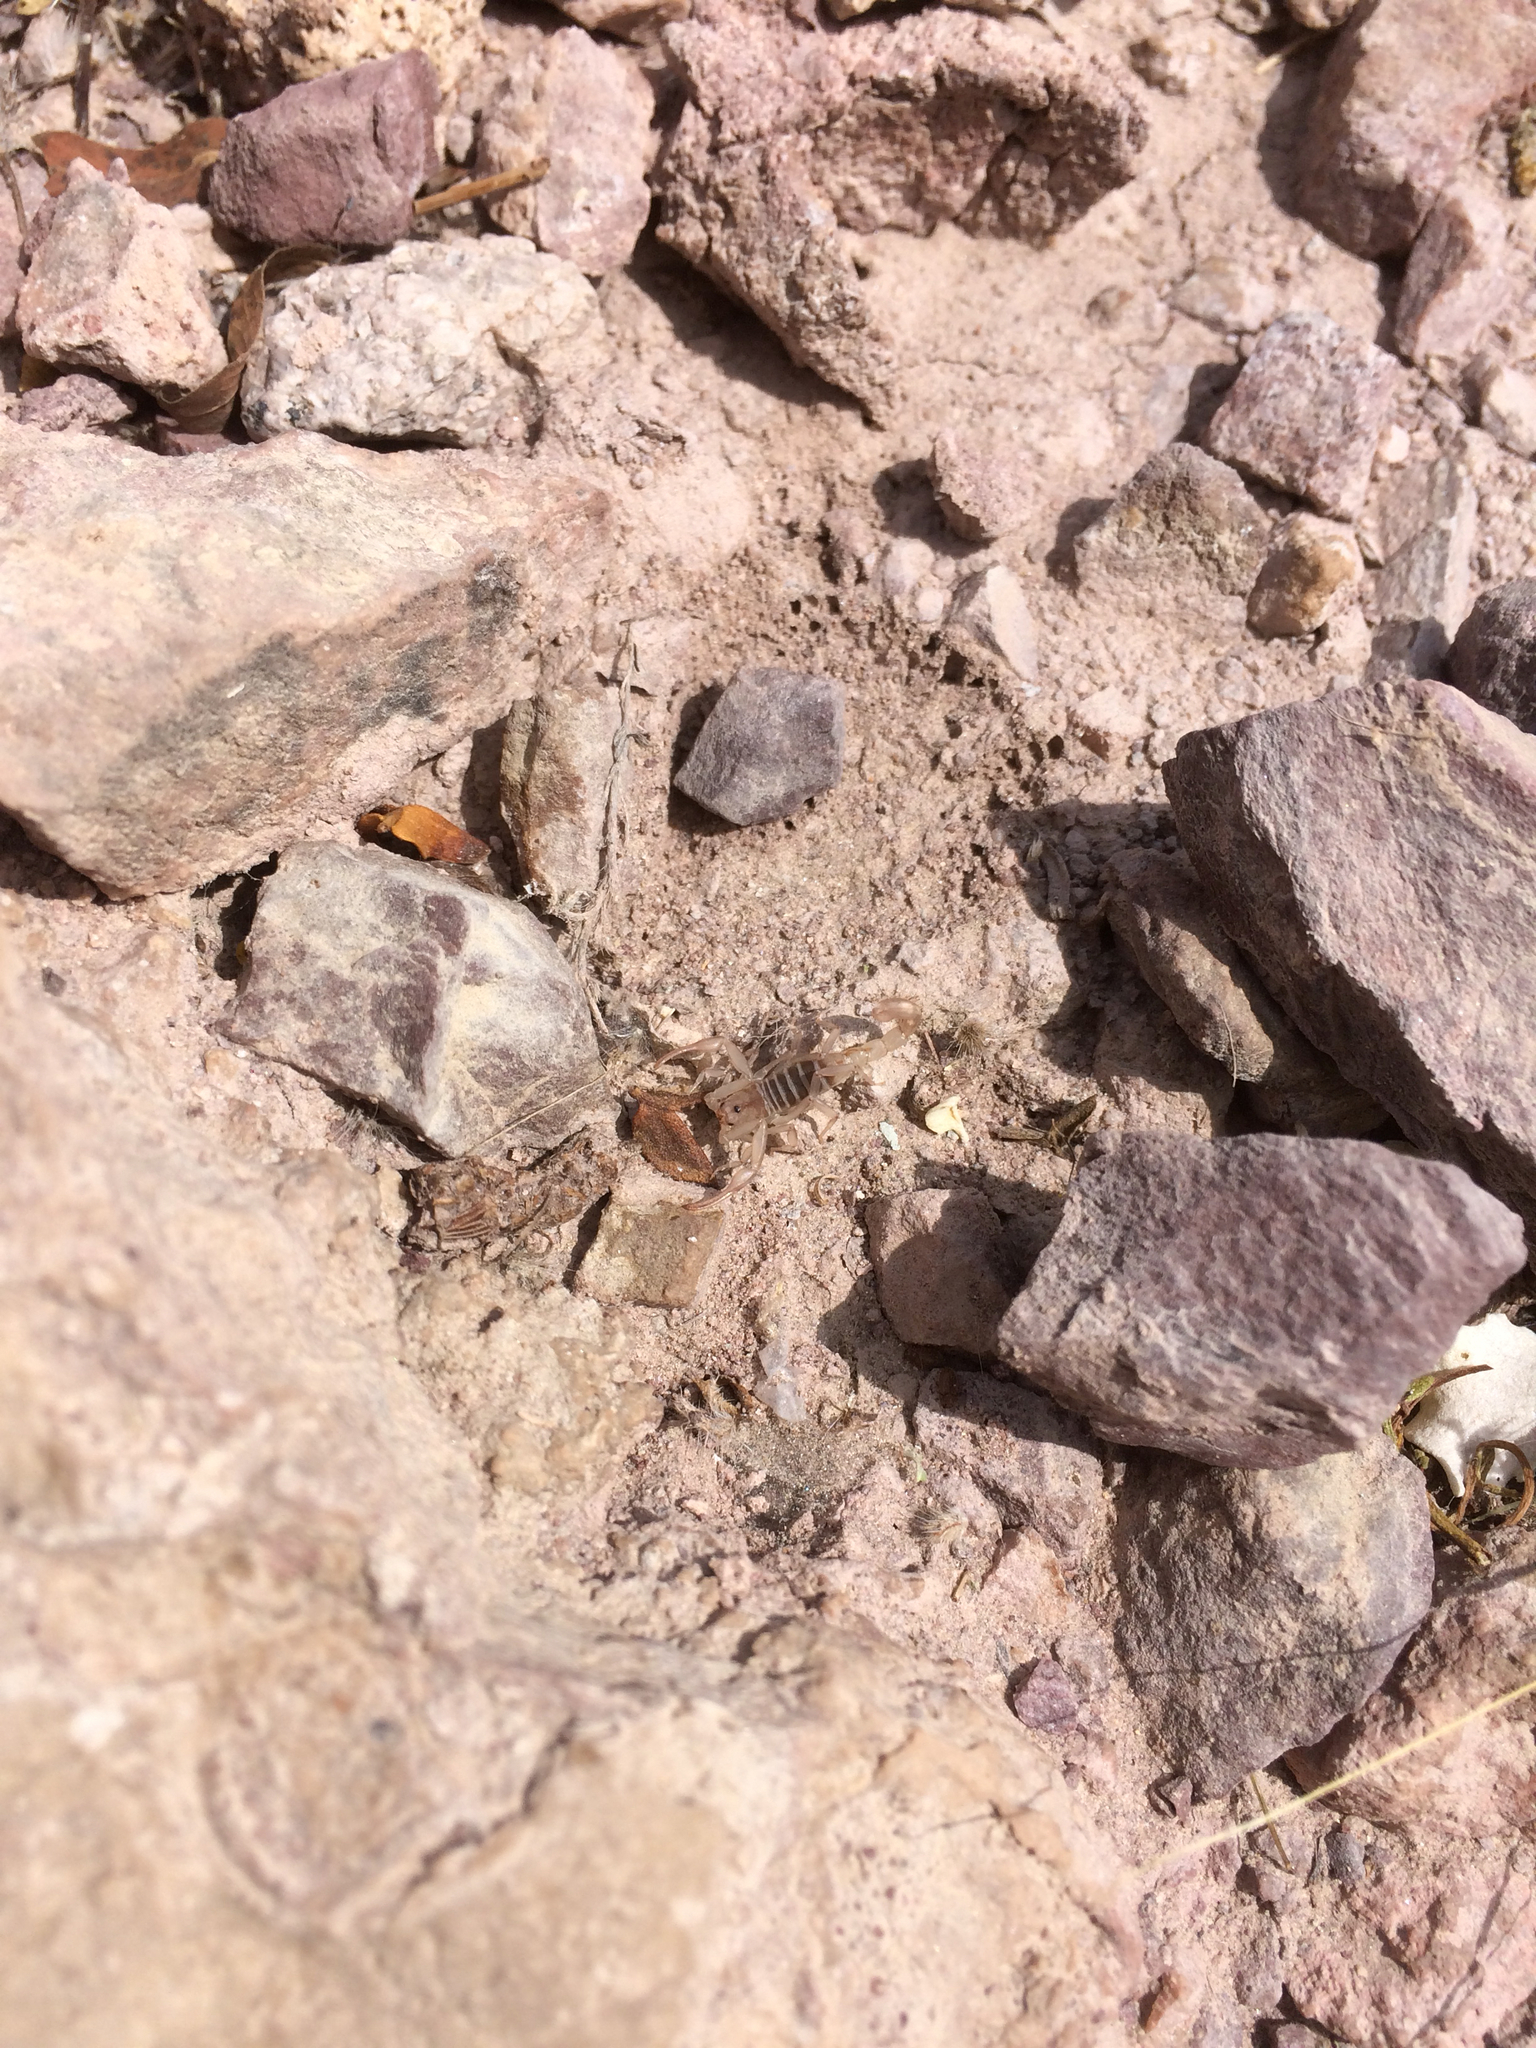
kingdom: Animalia
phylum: Arthropoda
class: Arachnida
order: Scorpiones
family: Vaejovidae
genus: Stahnkeus
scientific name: Stahnkeus deserticola
